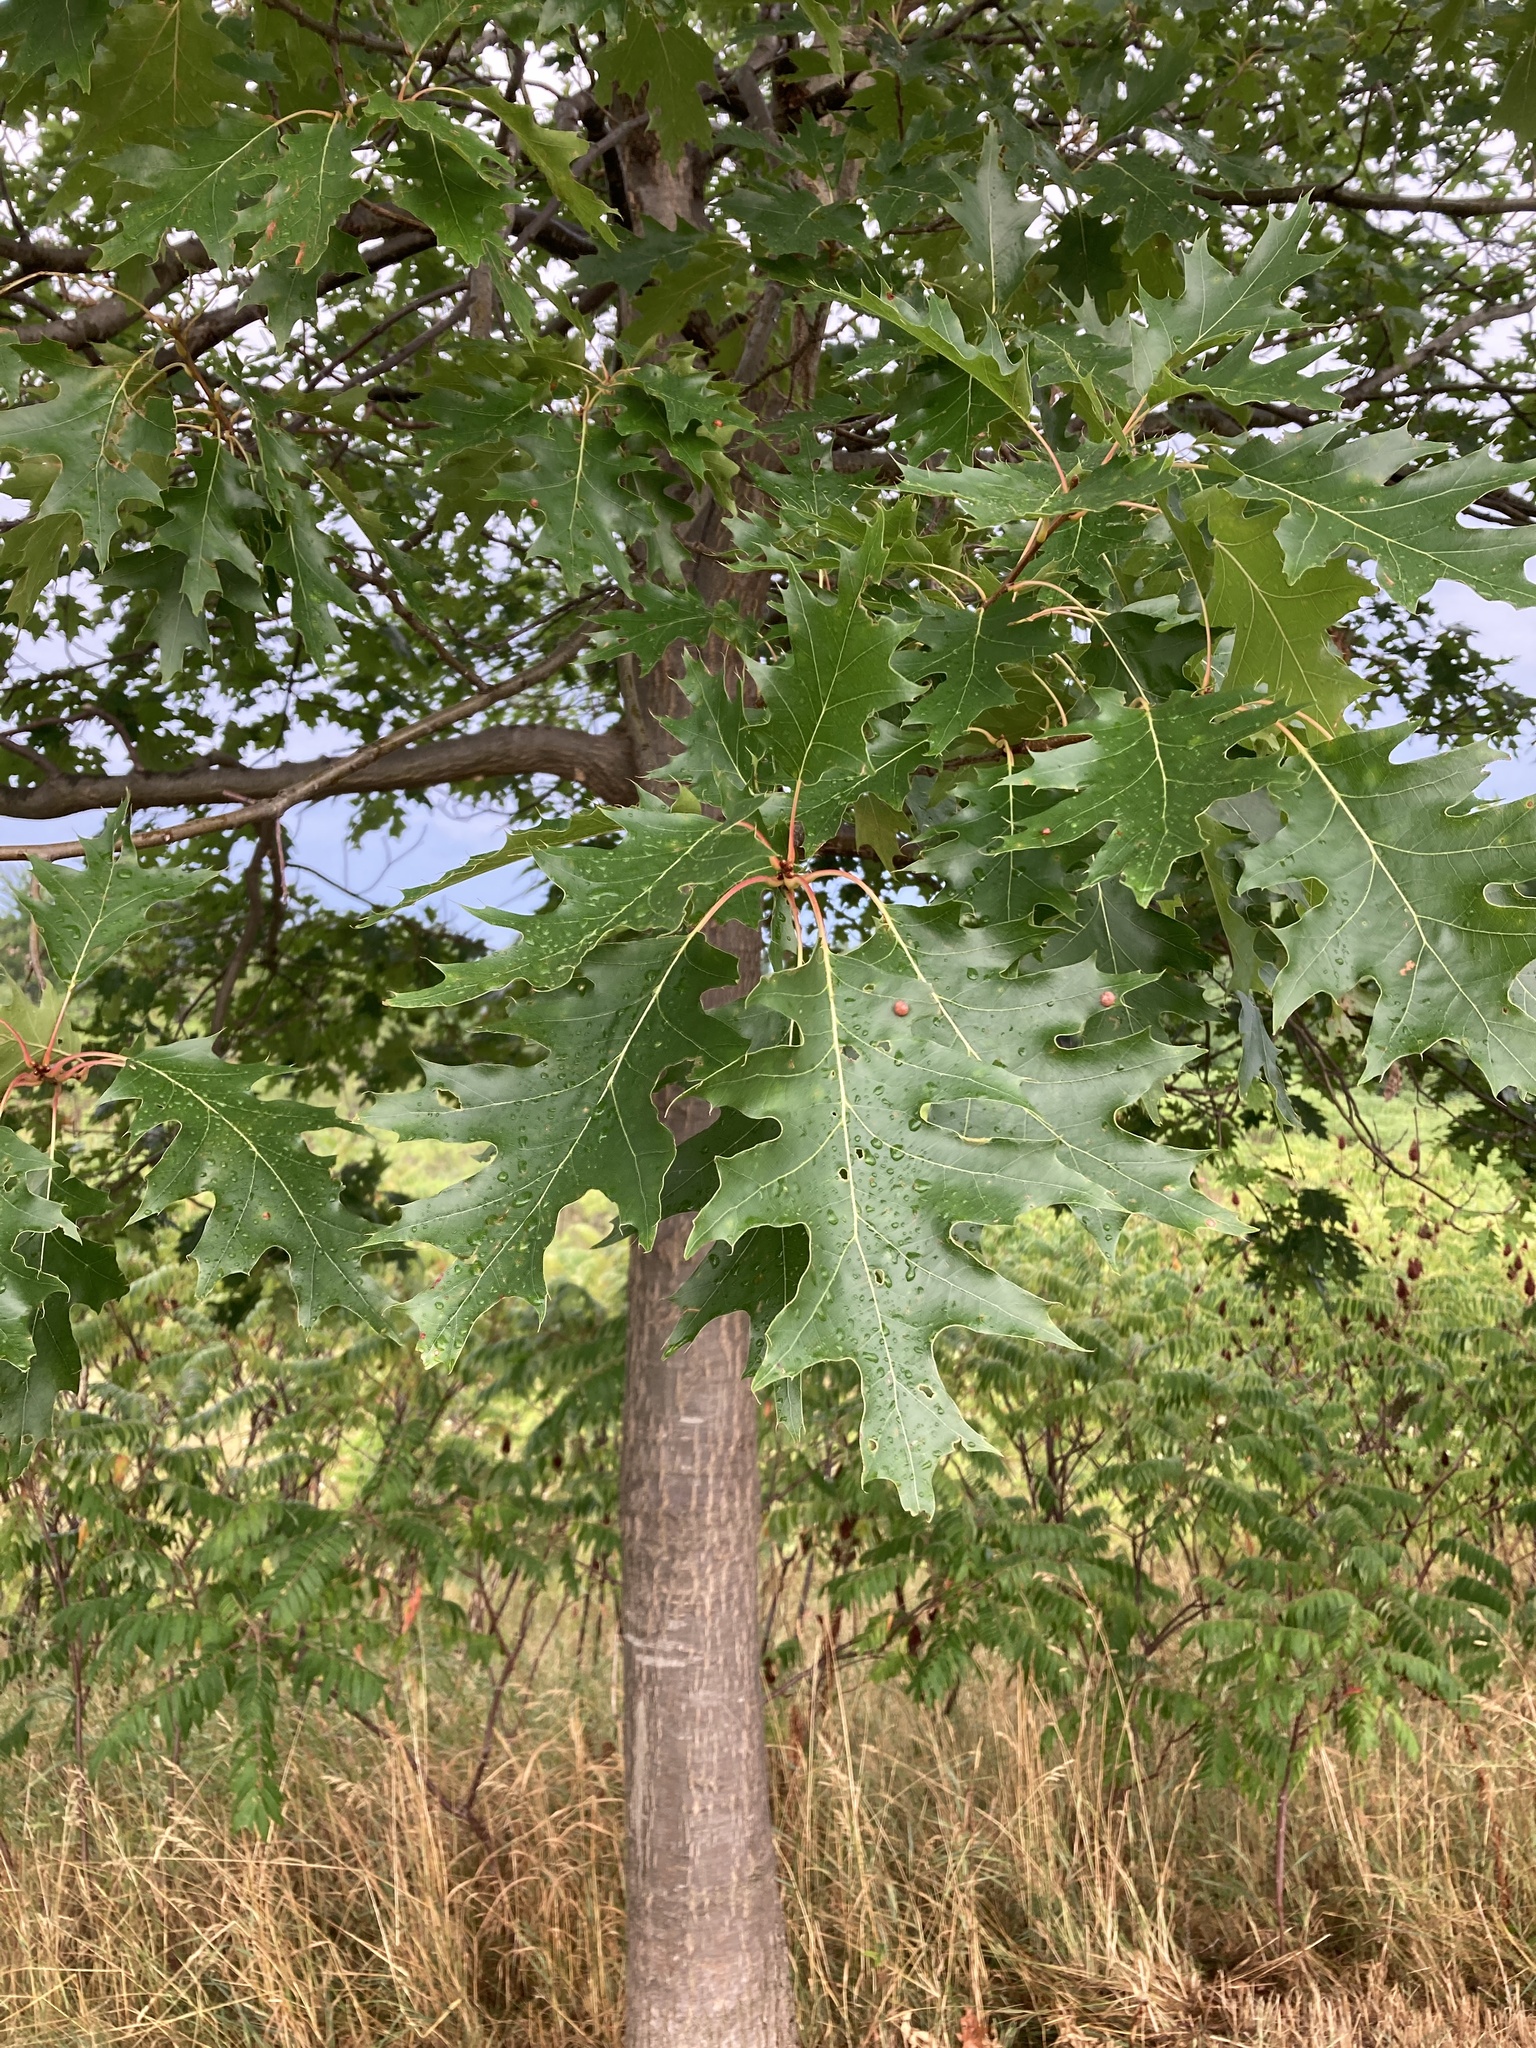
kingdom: Plantae
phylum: Tracheophyta
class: Magnoliopsida
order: Fagales
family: Fagaceae
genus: Quercus
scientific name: Quercus rubra
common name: Red oak
